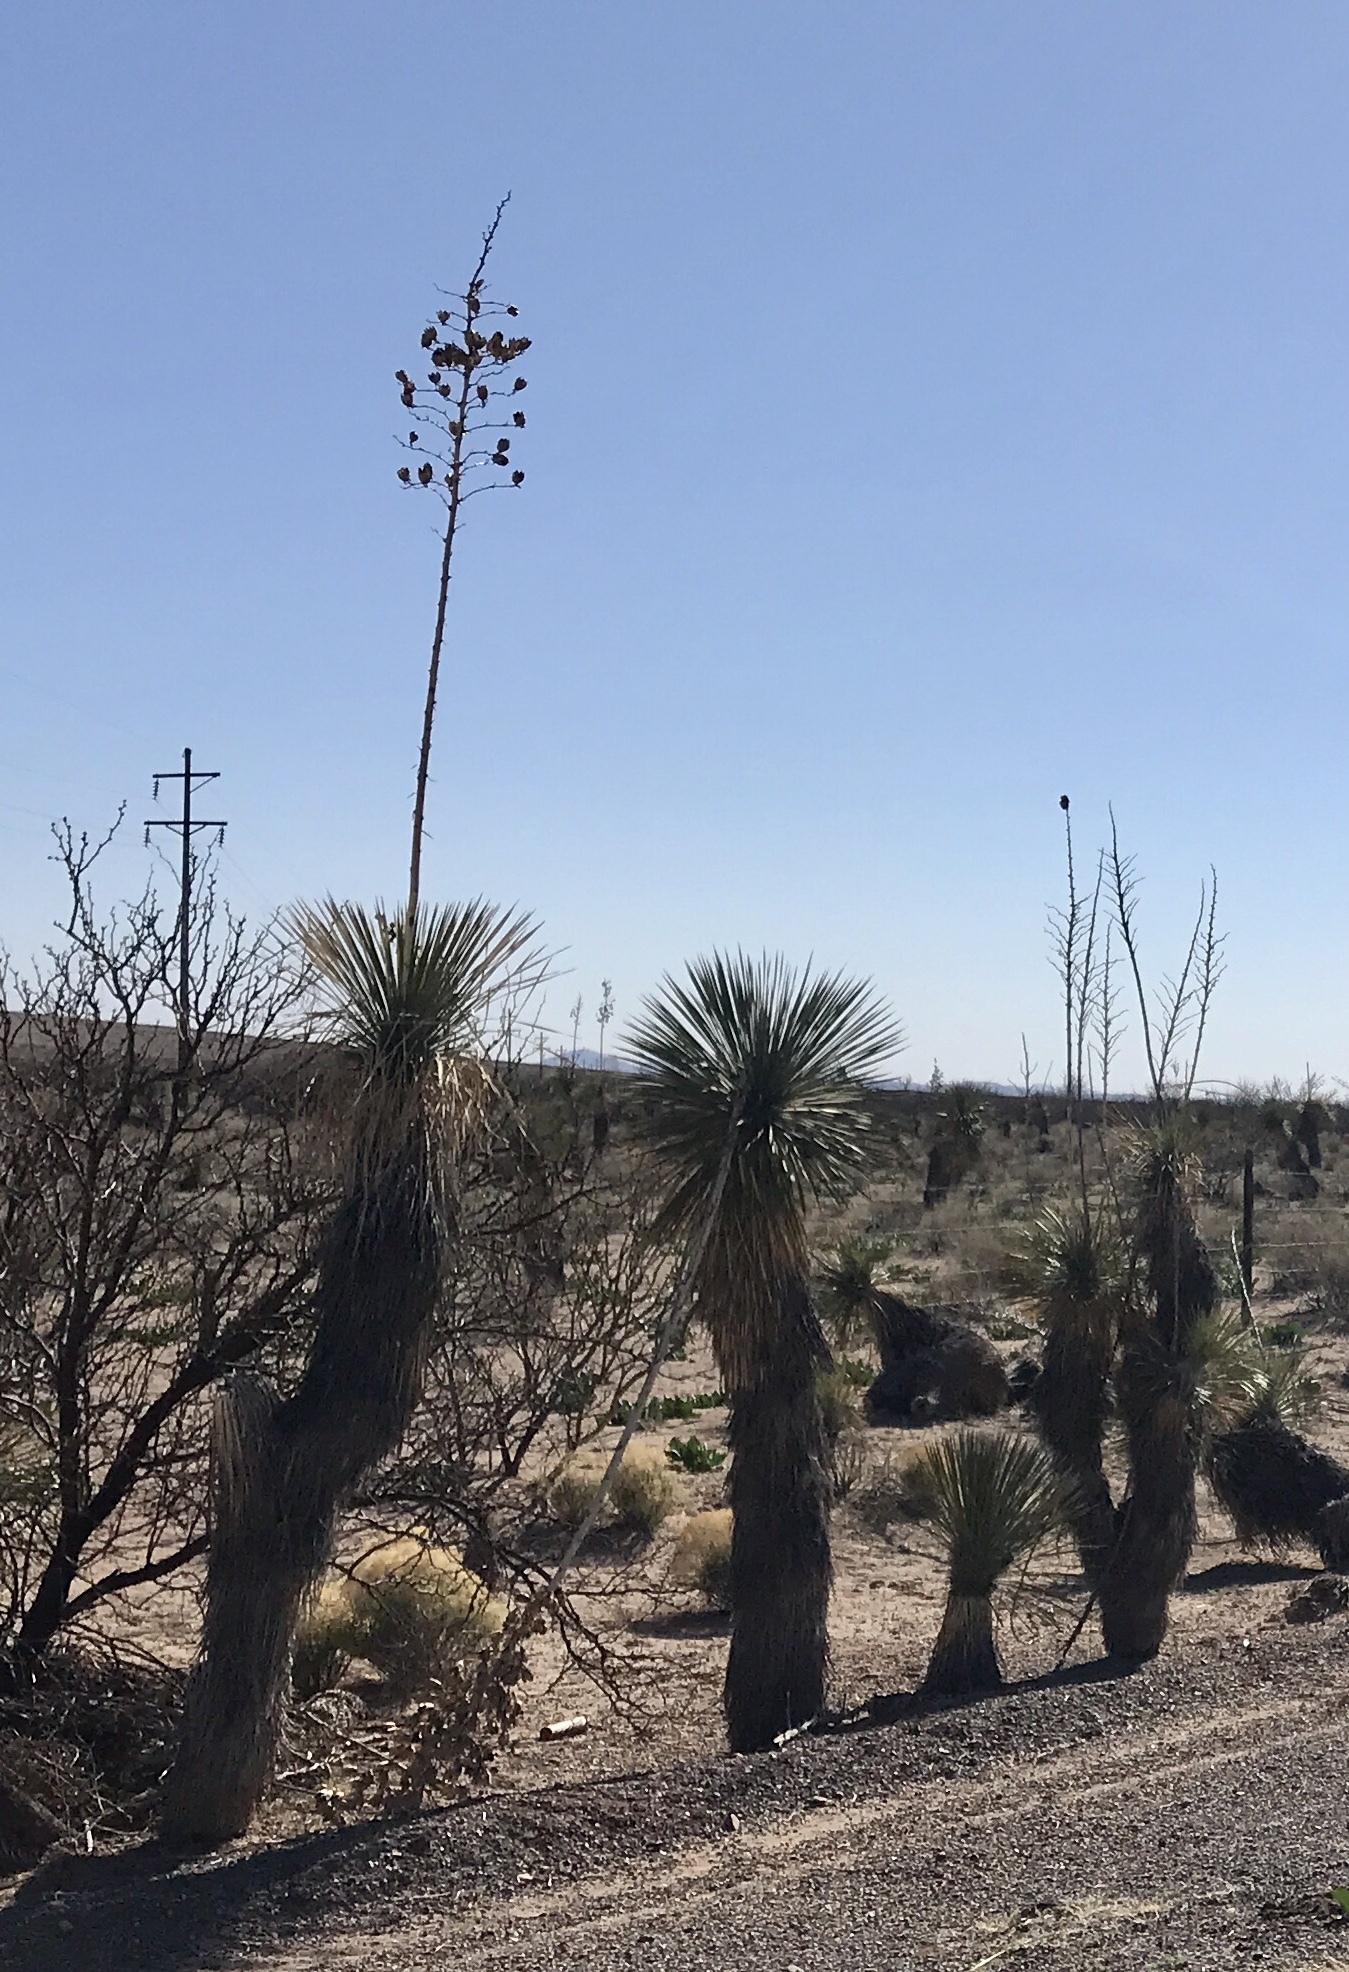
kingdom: Plantae
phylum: Tracheophyta
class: Liliopsida
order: Asparagales
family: Asparagaceae
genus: Yucca
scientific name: Yucca elata
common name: Palmella
